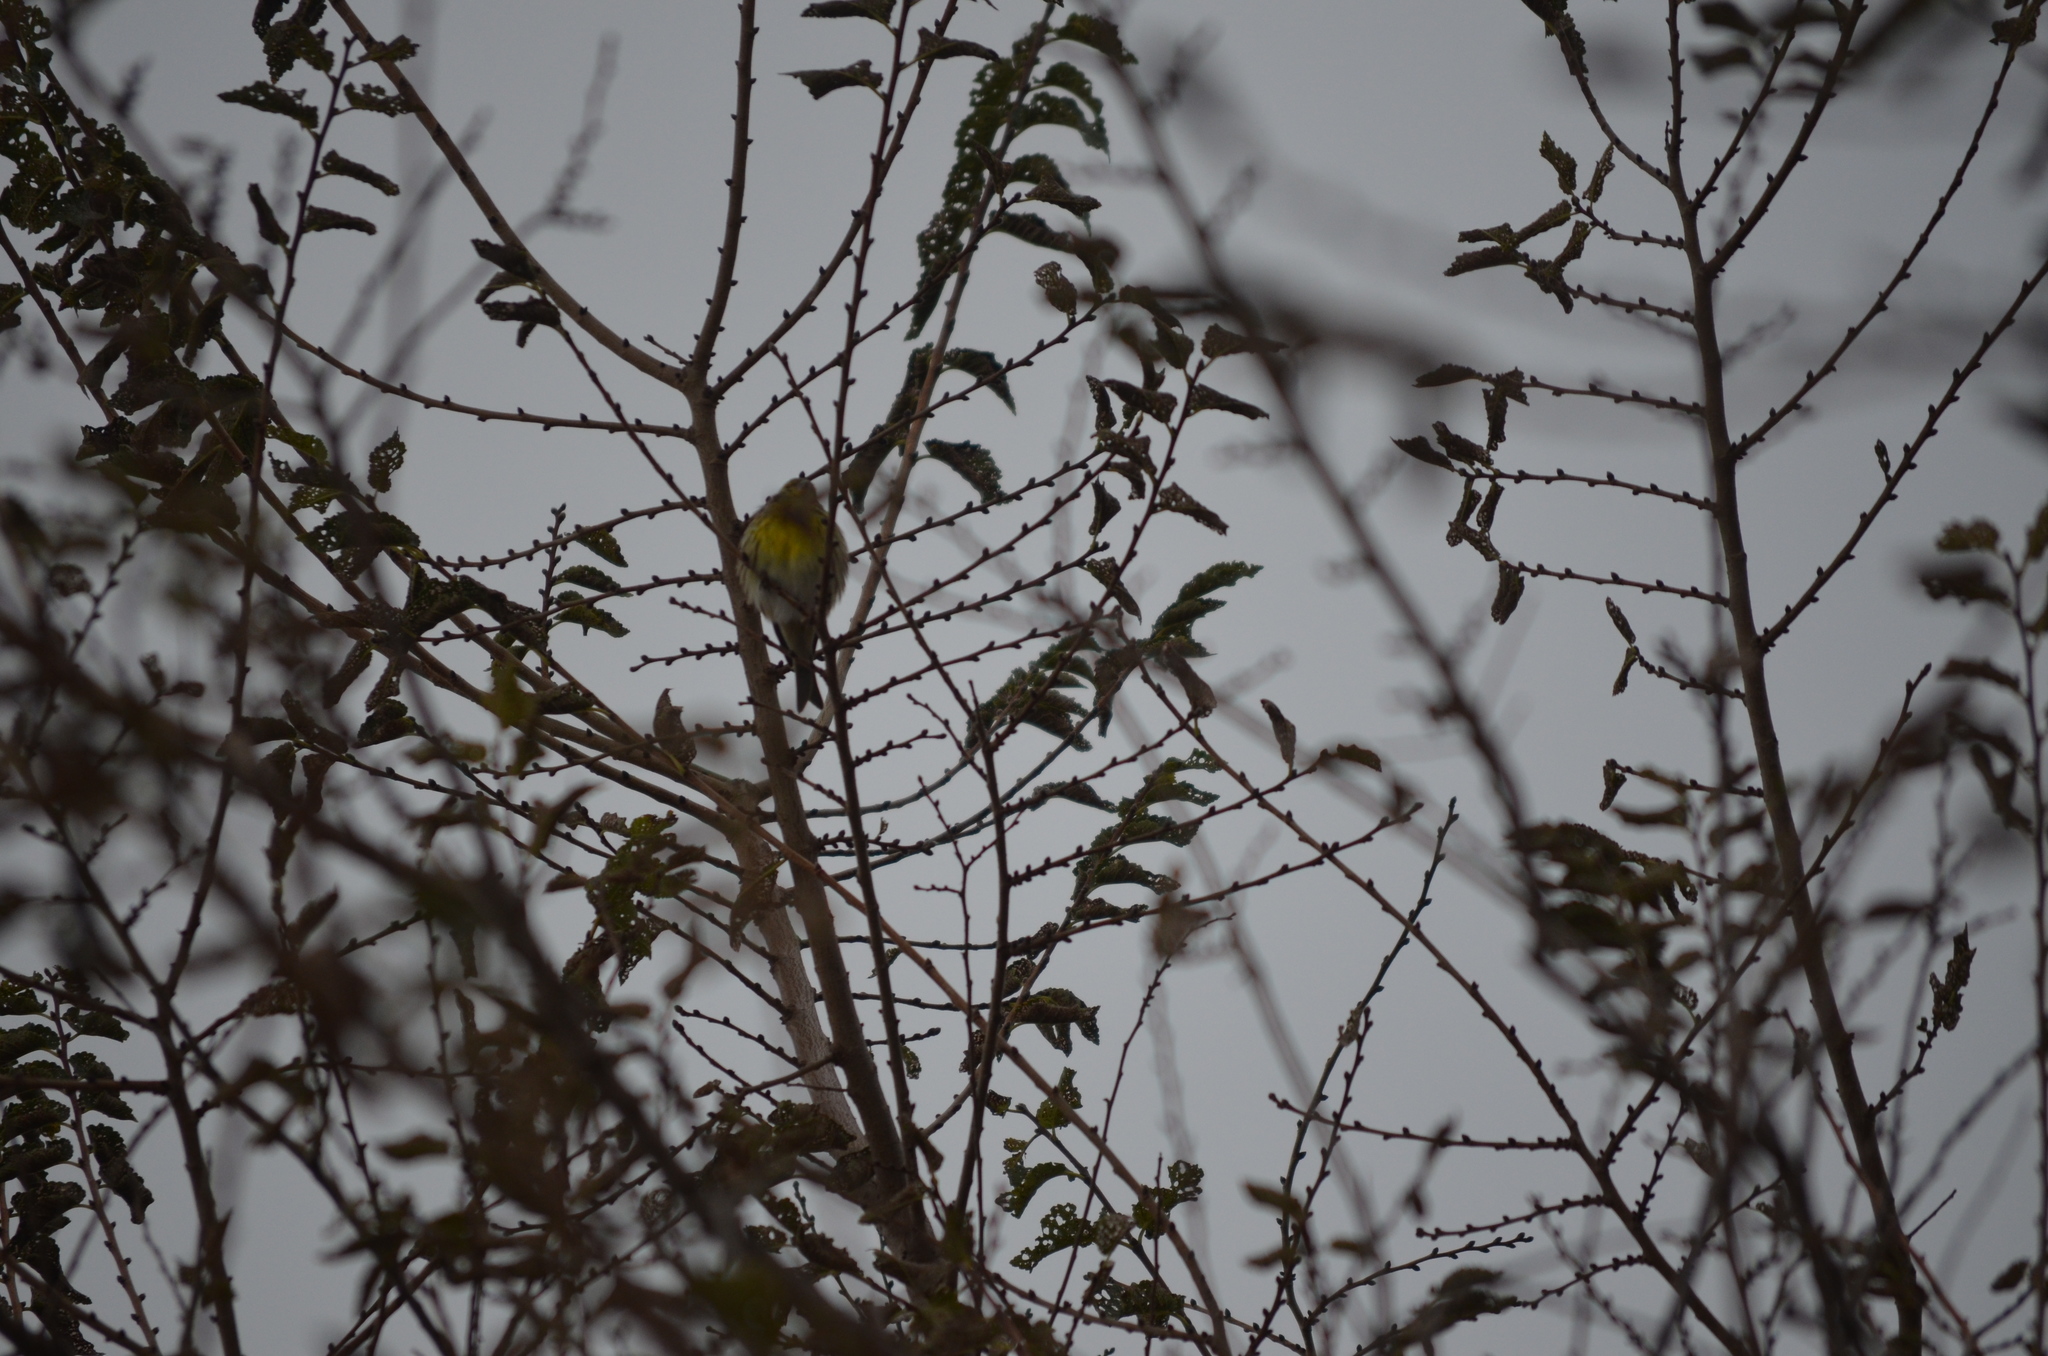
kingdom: Animalia
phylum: Chordata
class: Aves
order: Passeriformes
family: Fringillidae
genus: Serinus
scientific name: Serinus serinus
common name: European serin
